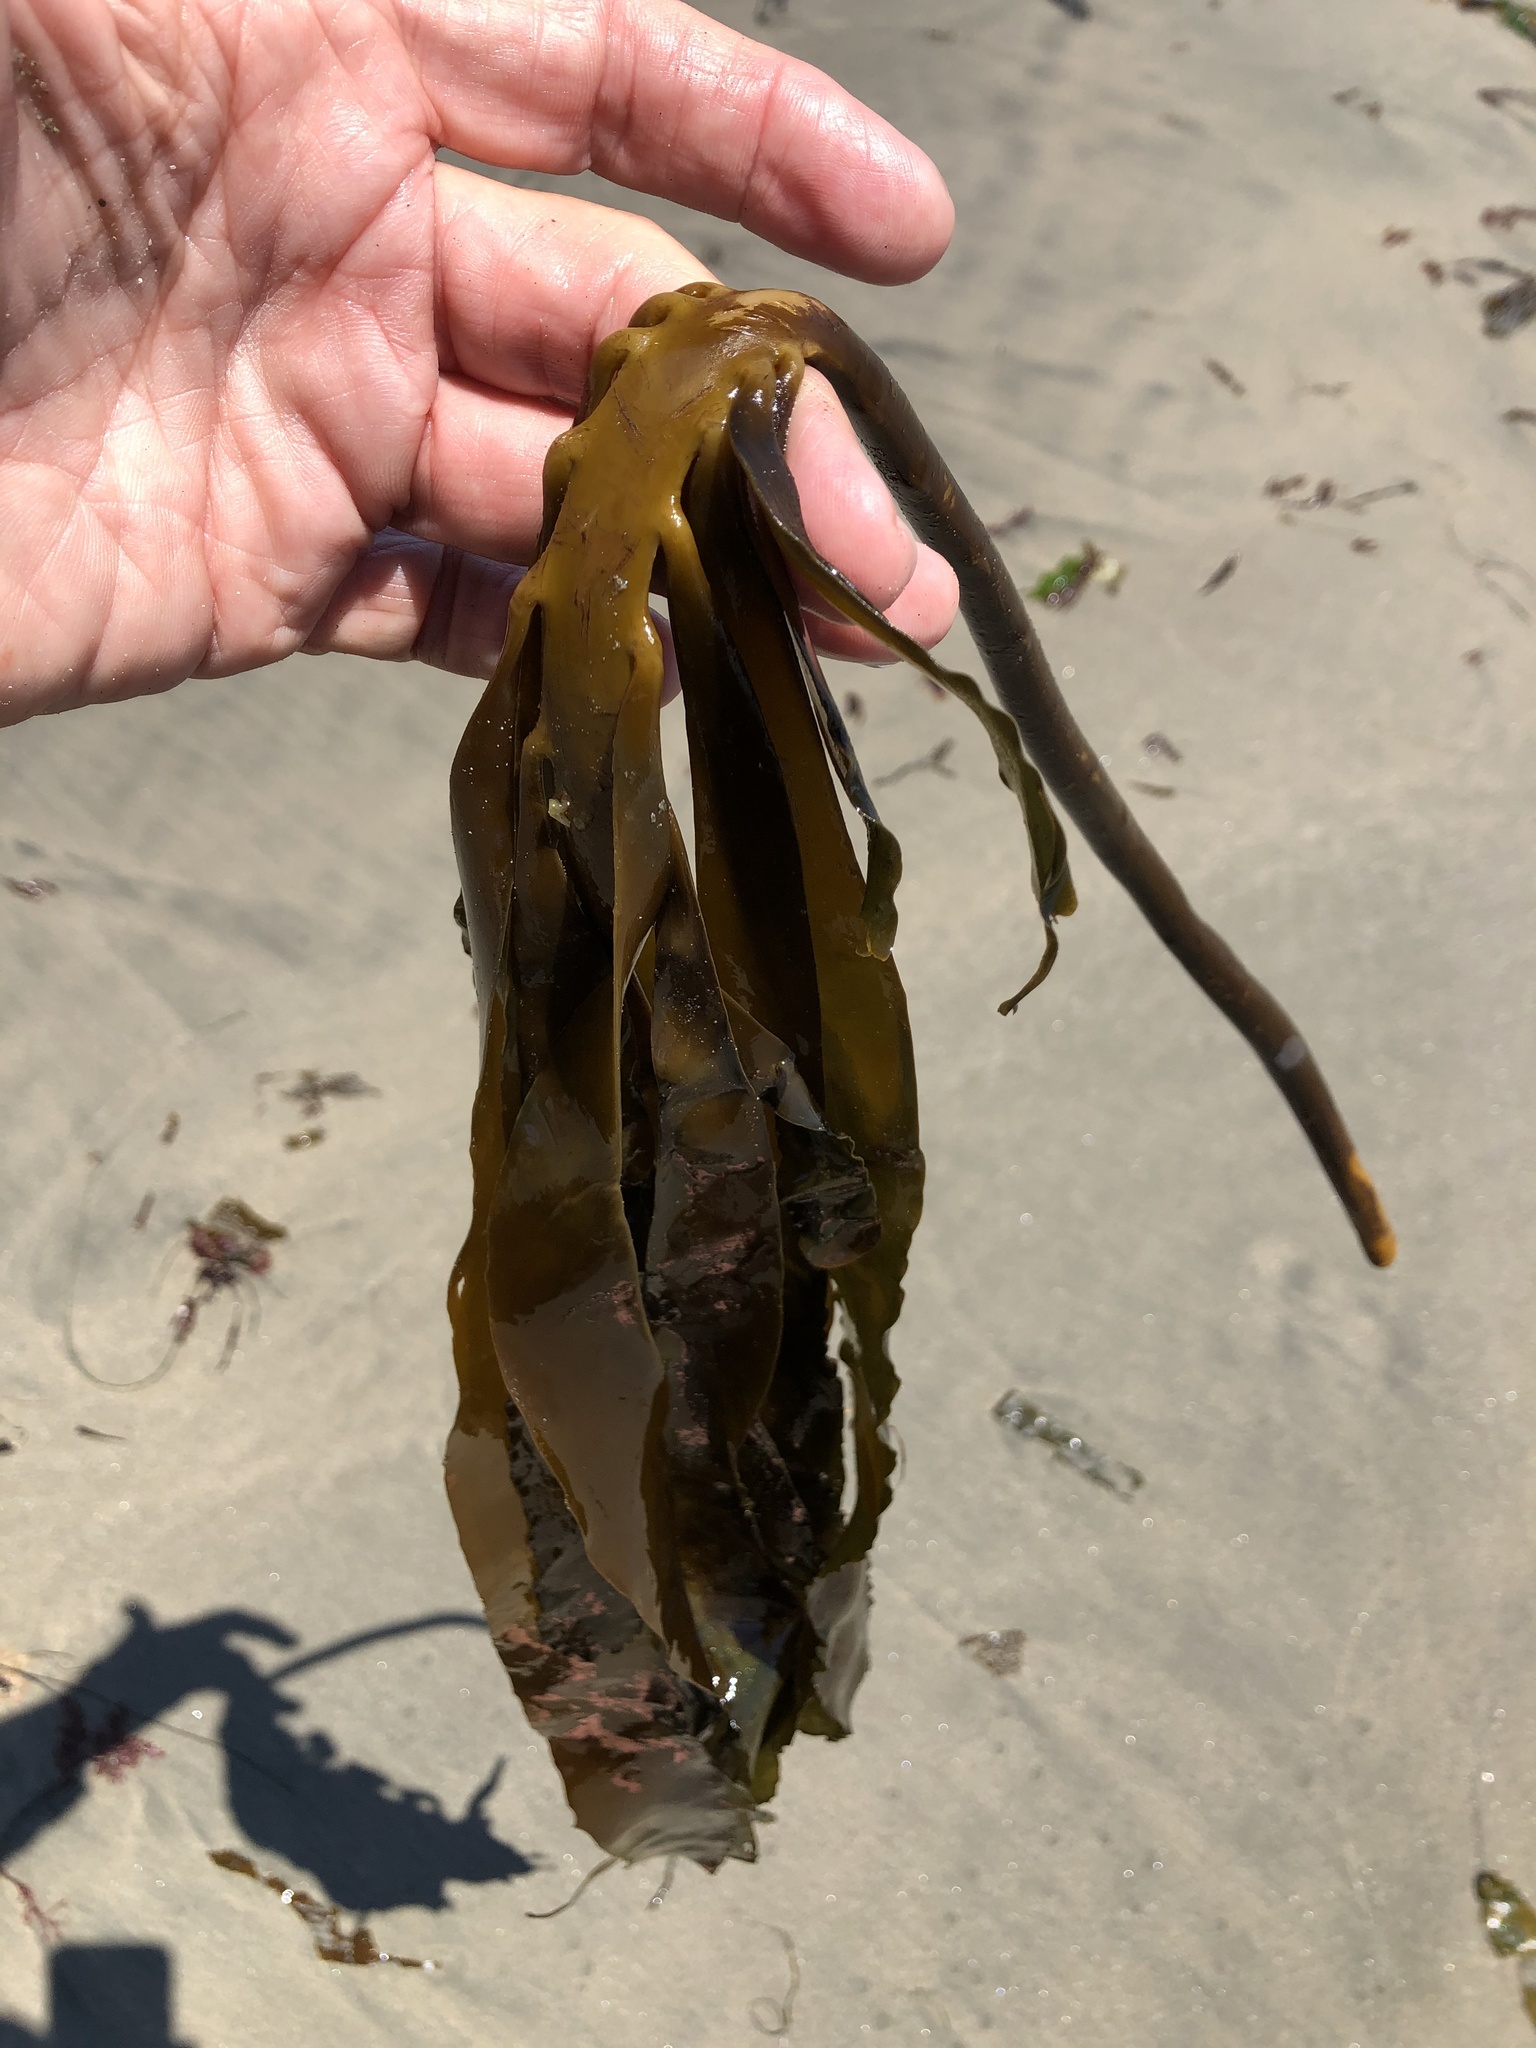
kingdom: Chromista
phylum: Ochrophyta
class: Phaeophyceae
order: Laminariales
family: Alariaceae
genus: Pterygophora
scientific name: Pterygophora californica
